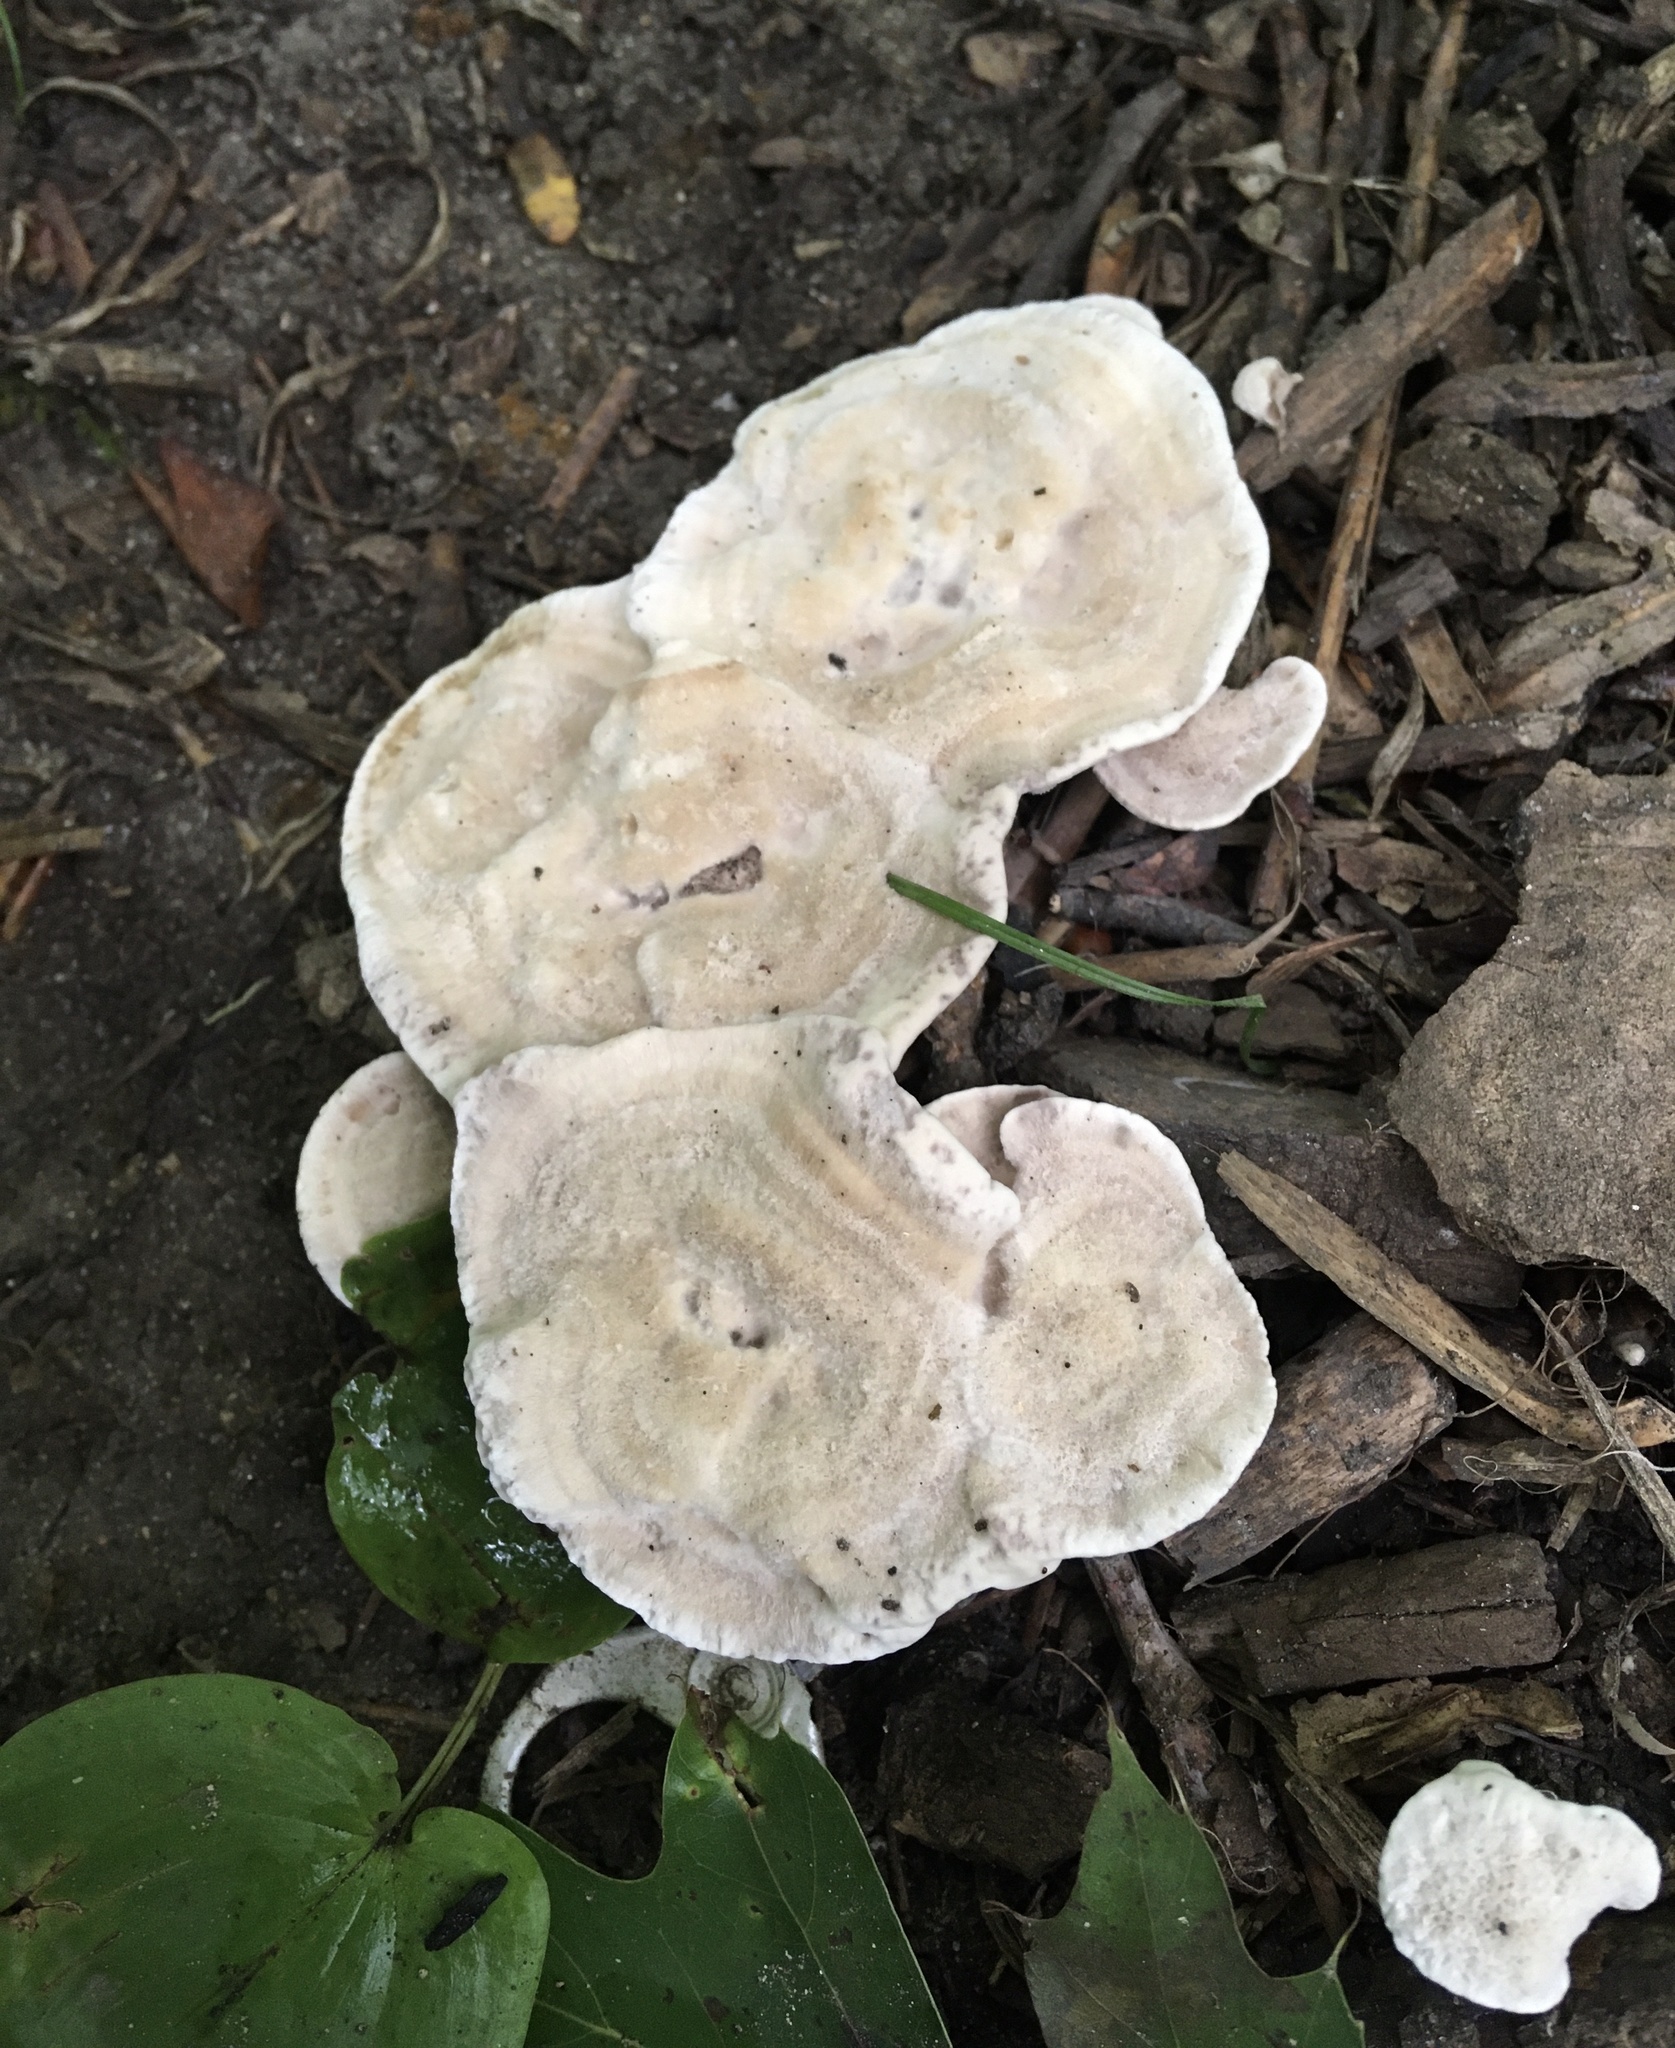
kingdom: Fungi
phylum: Basidiomycota
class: Agaricomycetes
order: Thelephorales
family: Thelephoraceae
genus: Phellodon
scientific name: Phellodon melaleucus
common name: Grey tooth
